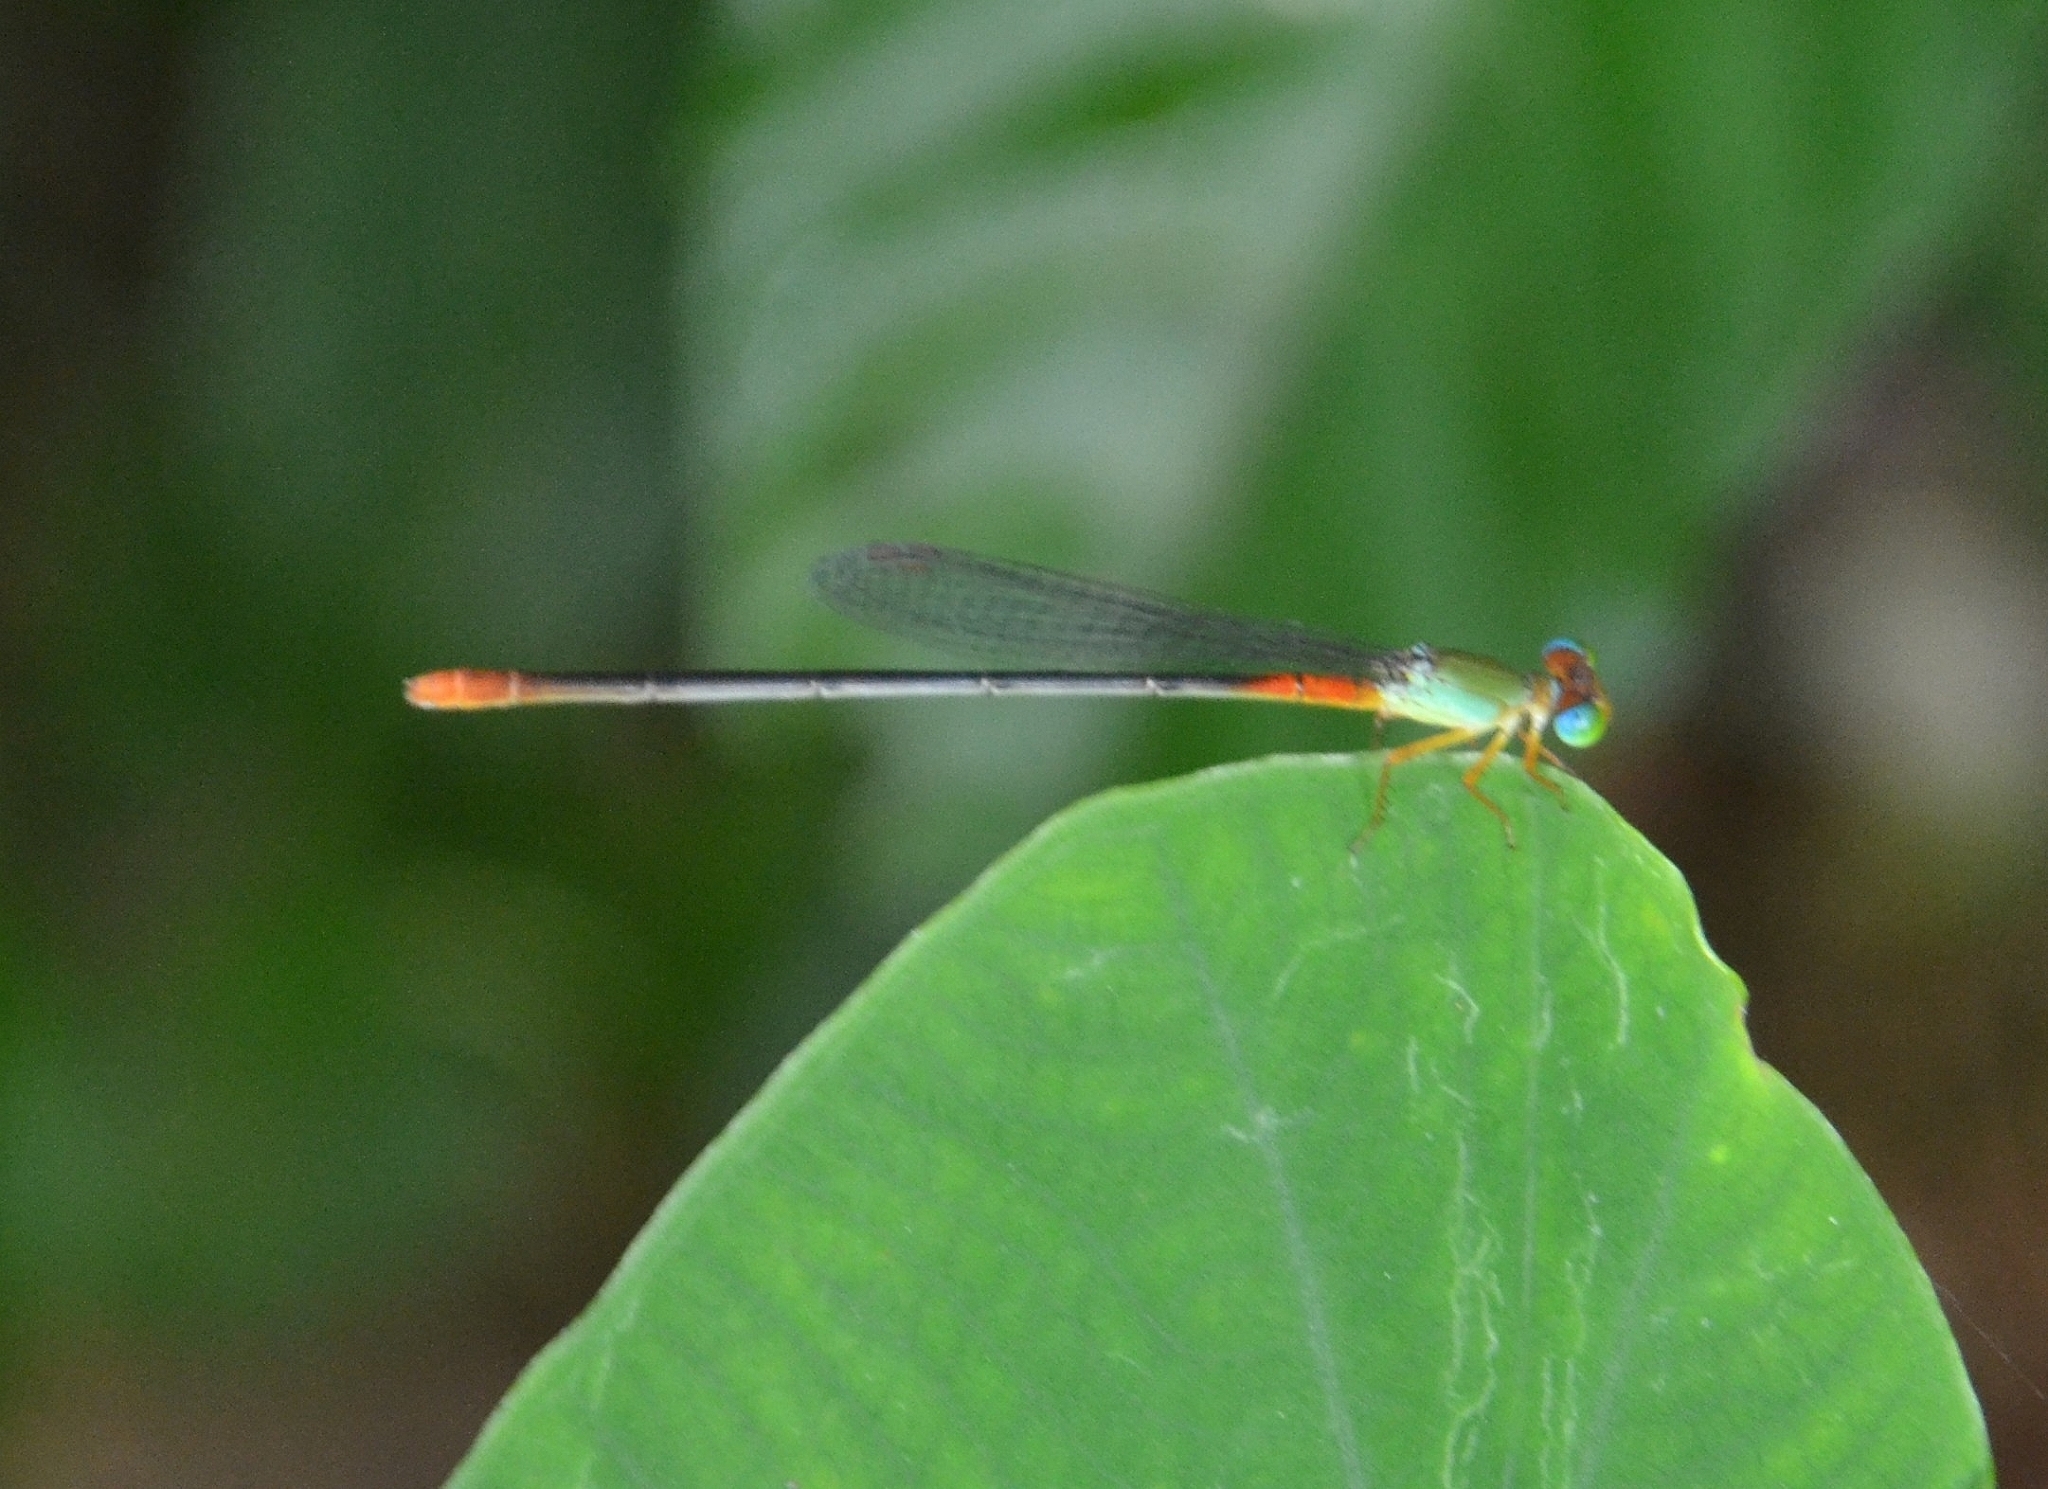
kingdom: Animalia
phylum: Arthropoda
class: Insecta
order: Odonata
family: Coenagrionidae
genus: Ceriagrion
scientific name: Ceriagrion cerinorubellum
